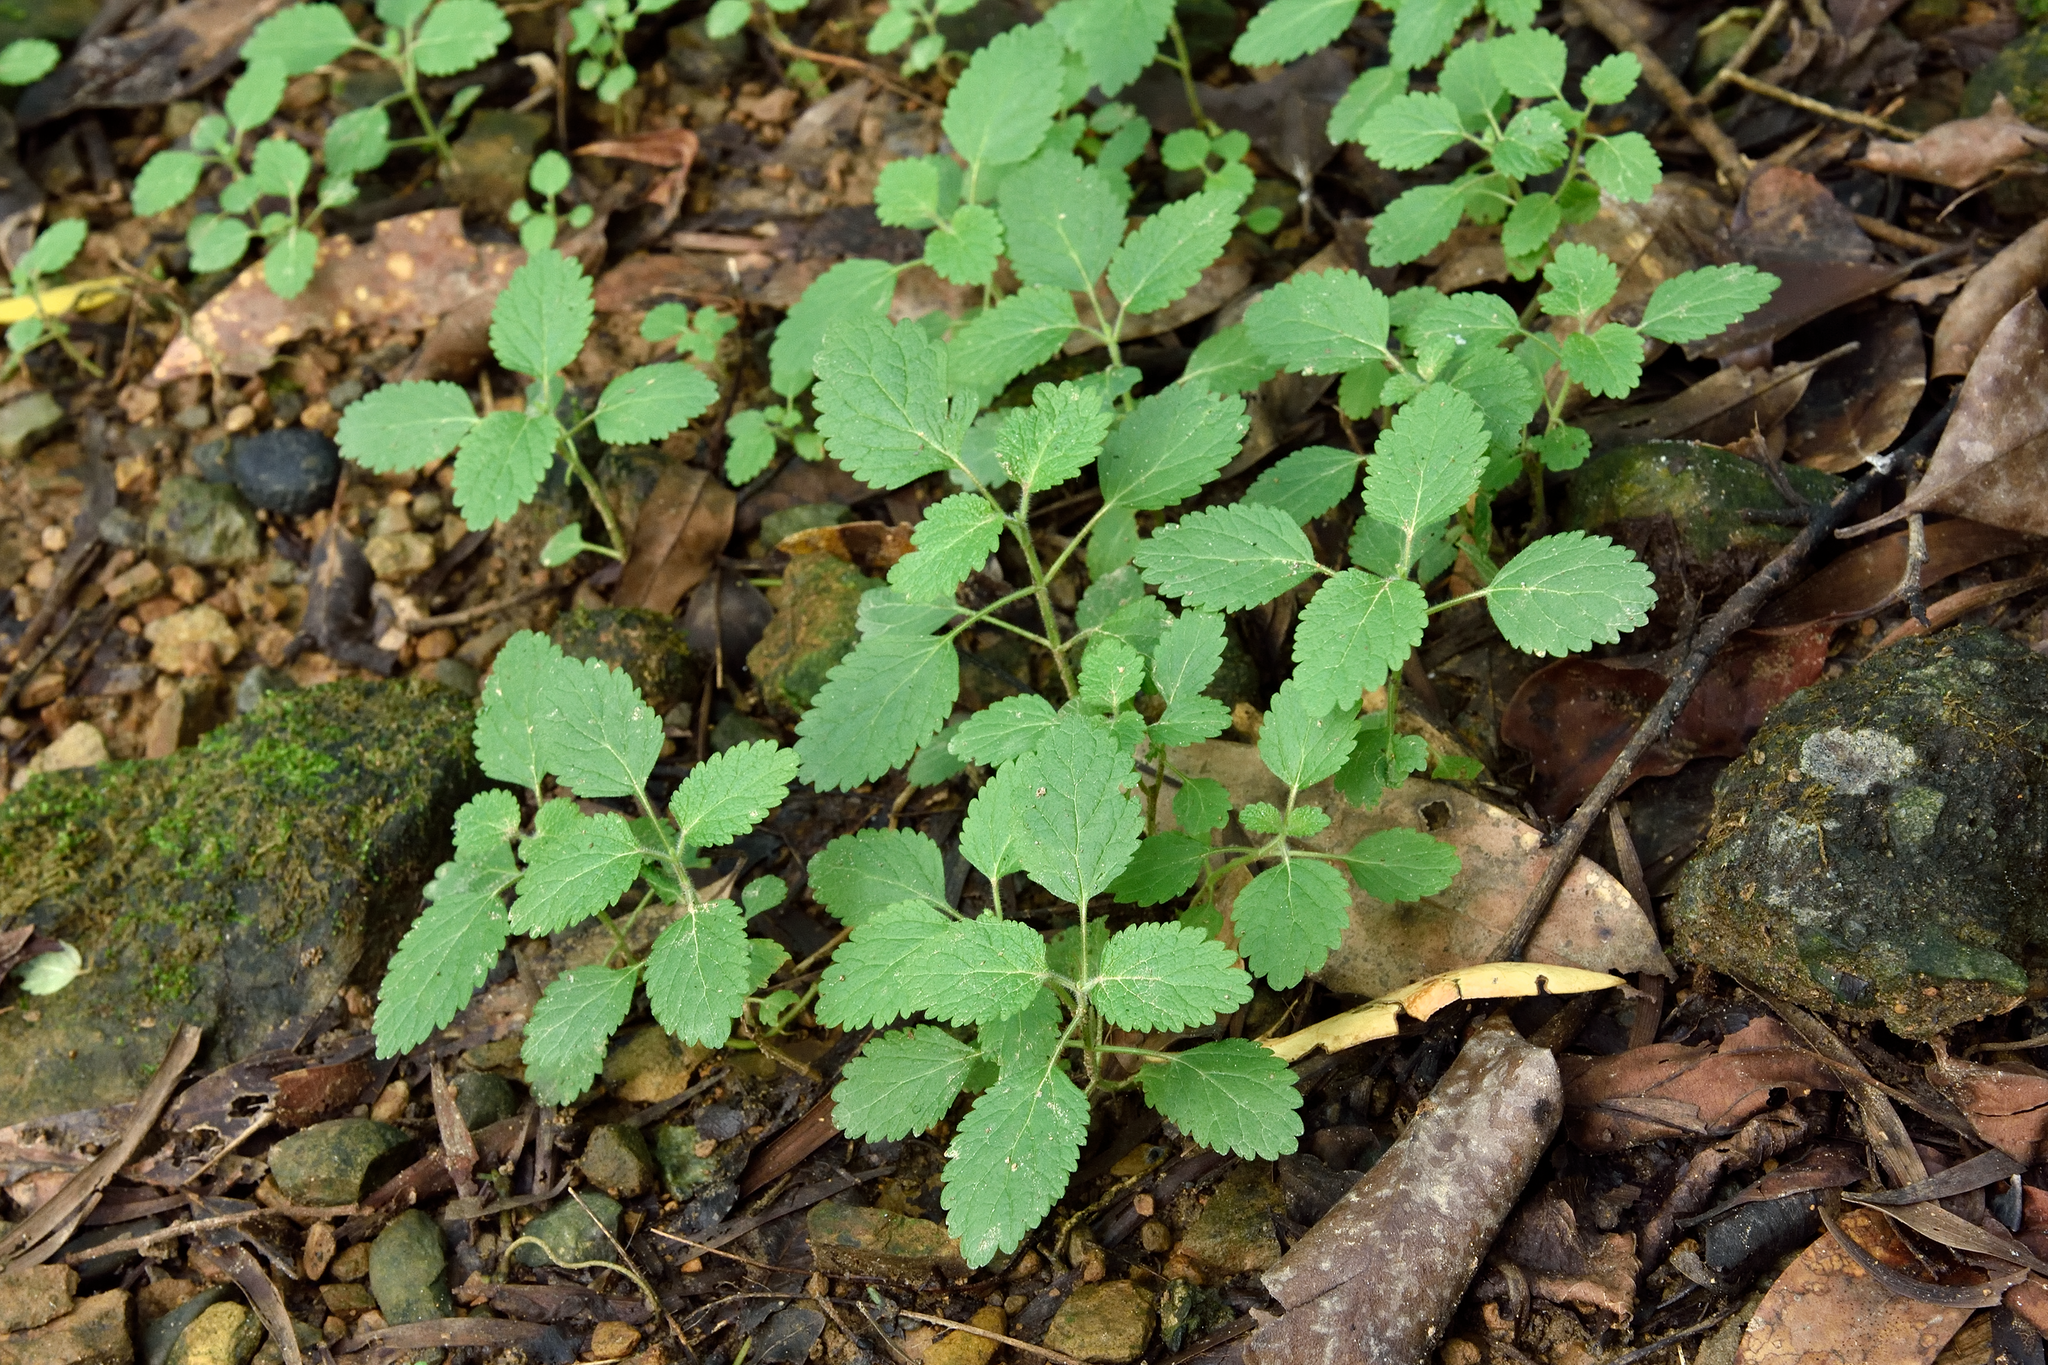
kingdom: Plantae
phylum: Tracheophyta
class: Magnoliopsida
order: Lamiales
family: Lamiaceae
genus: Teucrium
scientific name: Teucrium viscidum
